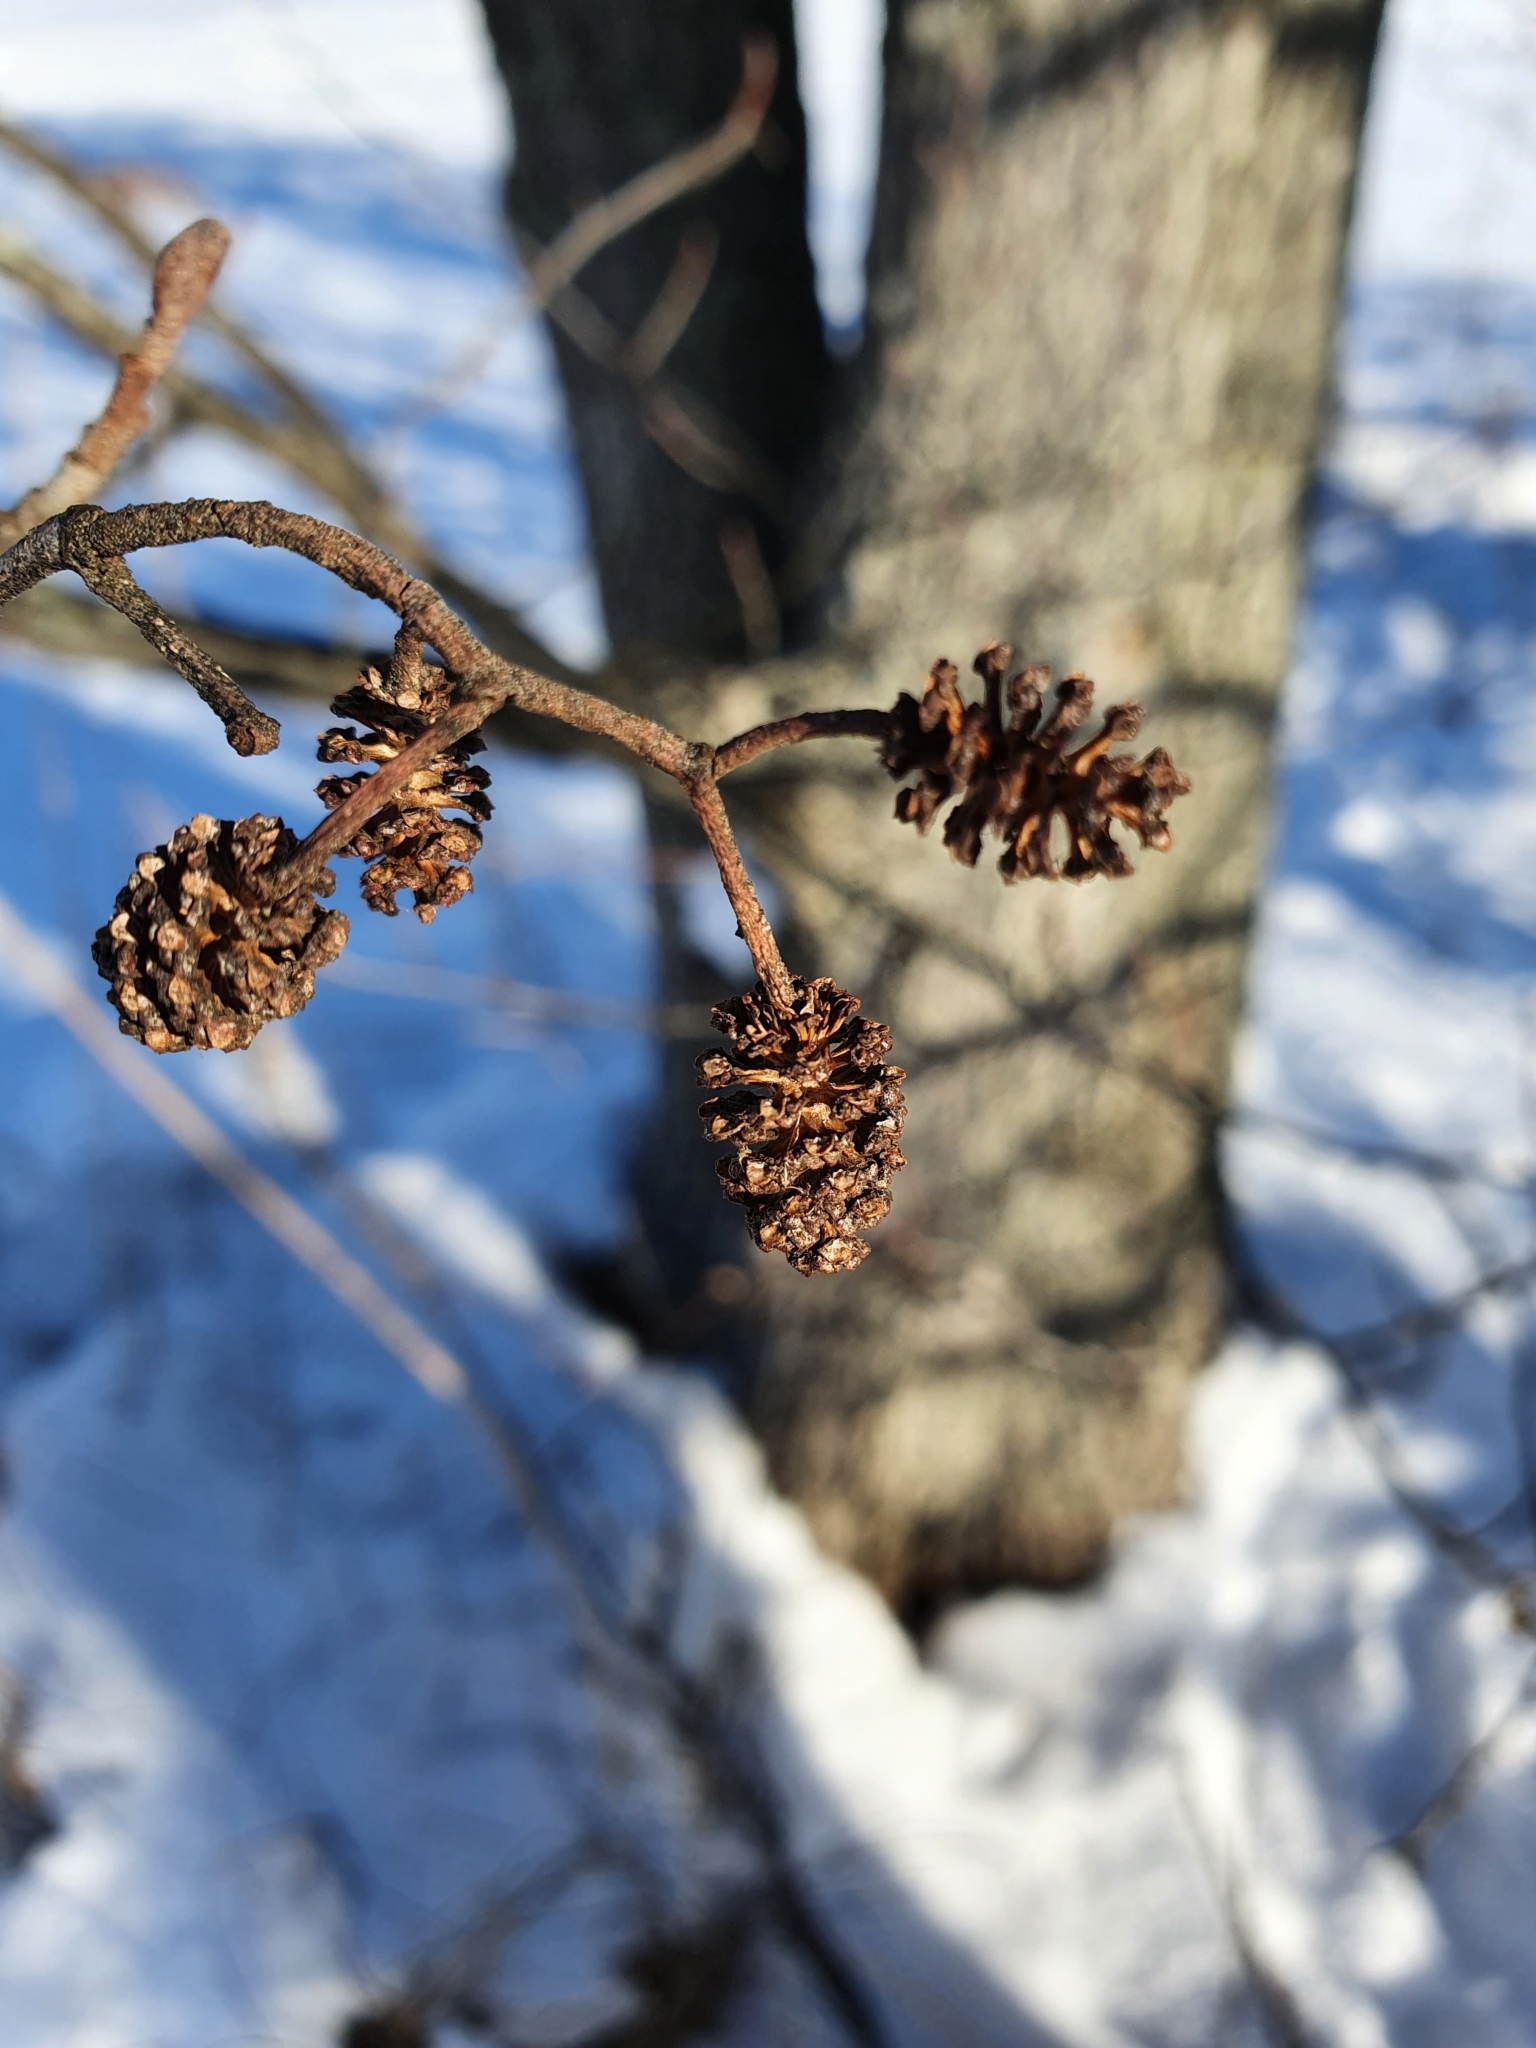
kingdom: Plantae
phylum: Tracheophyta
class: Magnoliopsida
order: Fagales
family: Betulaceae
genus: Alnus
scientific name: Alnus glutinosa
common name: Black alder
